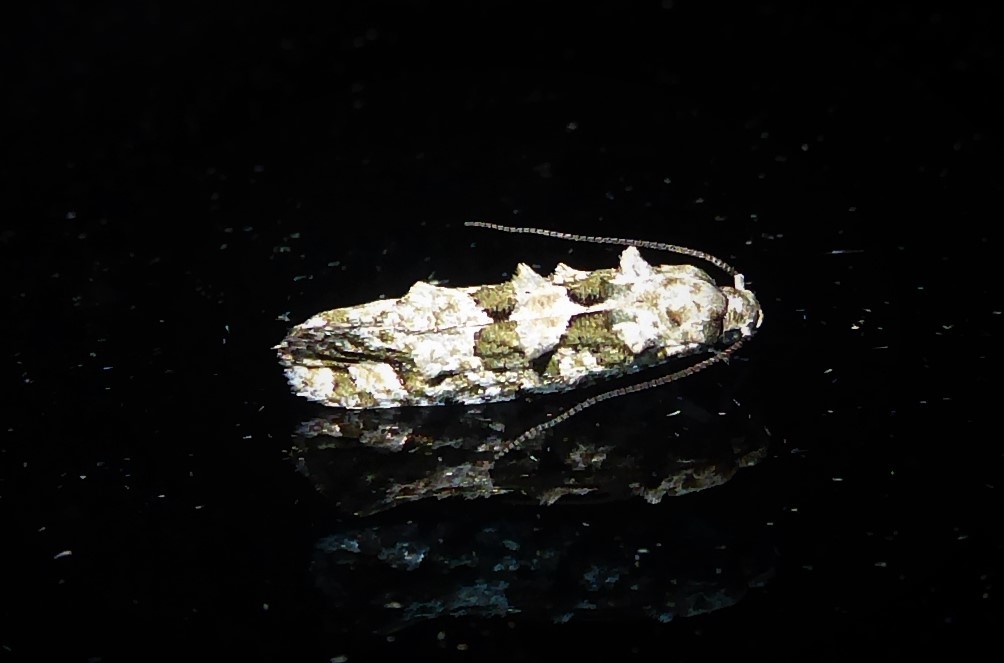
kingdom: Animalia
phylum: Arthropoda
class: Insecta
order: Lepidoptera
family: Tineidae
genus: Lysiphragma
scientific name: Lysiphragma howesii
